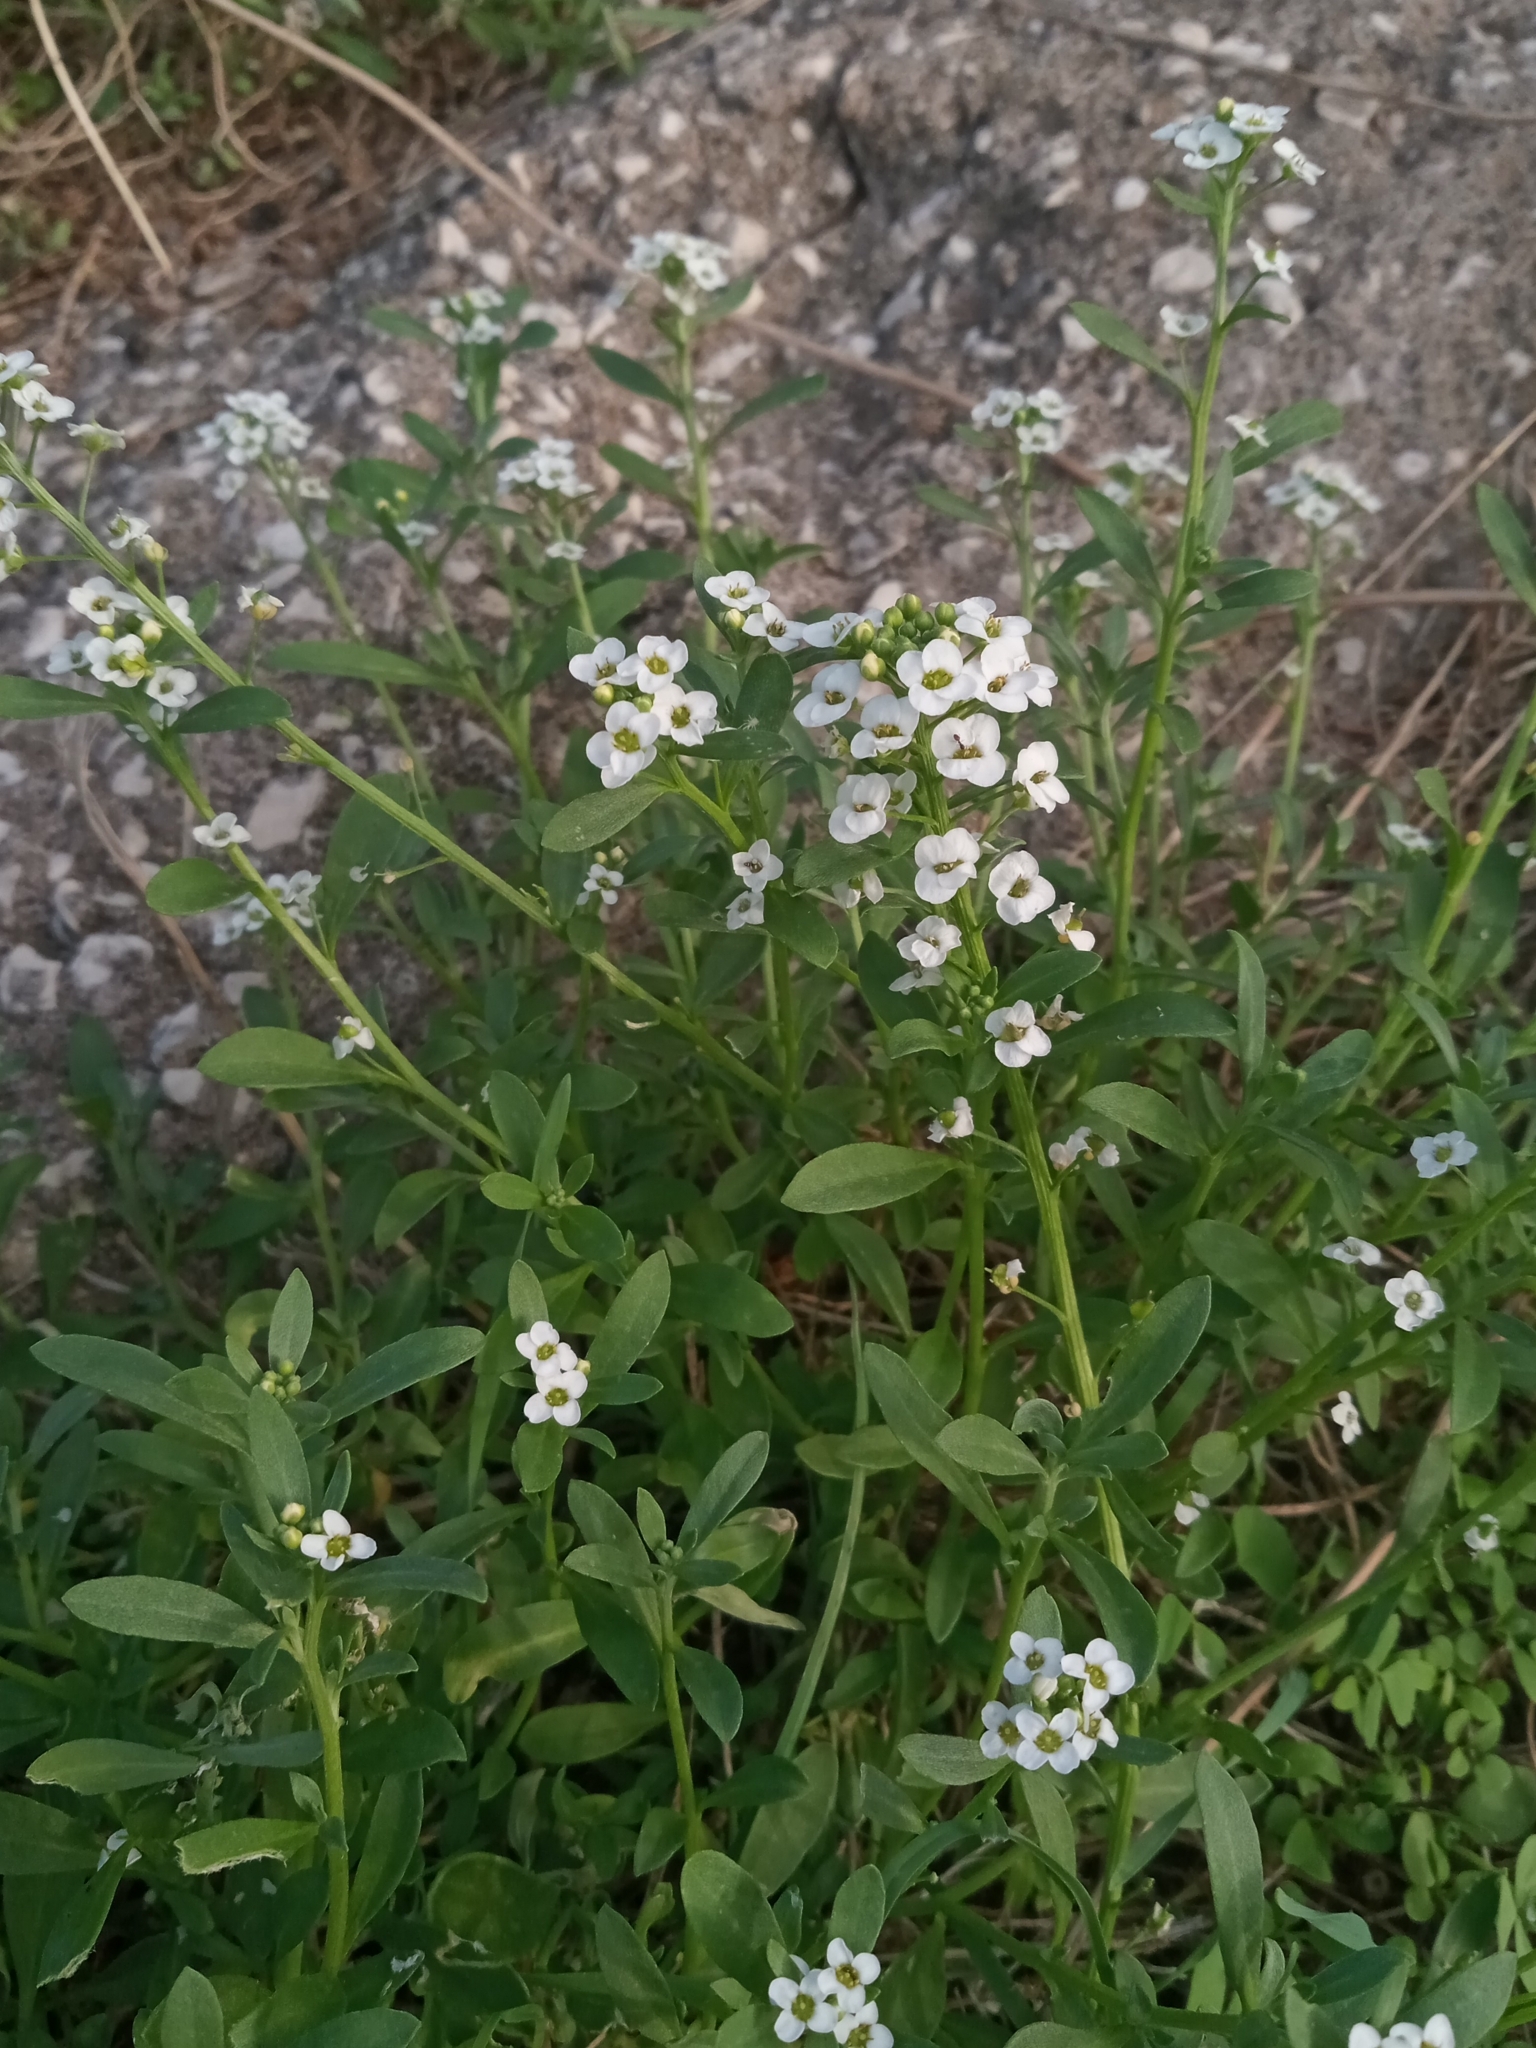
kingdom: Plantae
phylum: Tracheophyta
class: Magnoliopsida
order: Brassicales
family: Brassicaceae
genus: Lobularia
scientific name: Lobularia maritima
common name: Sweet alison
